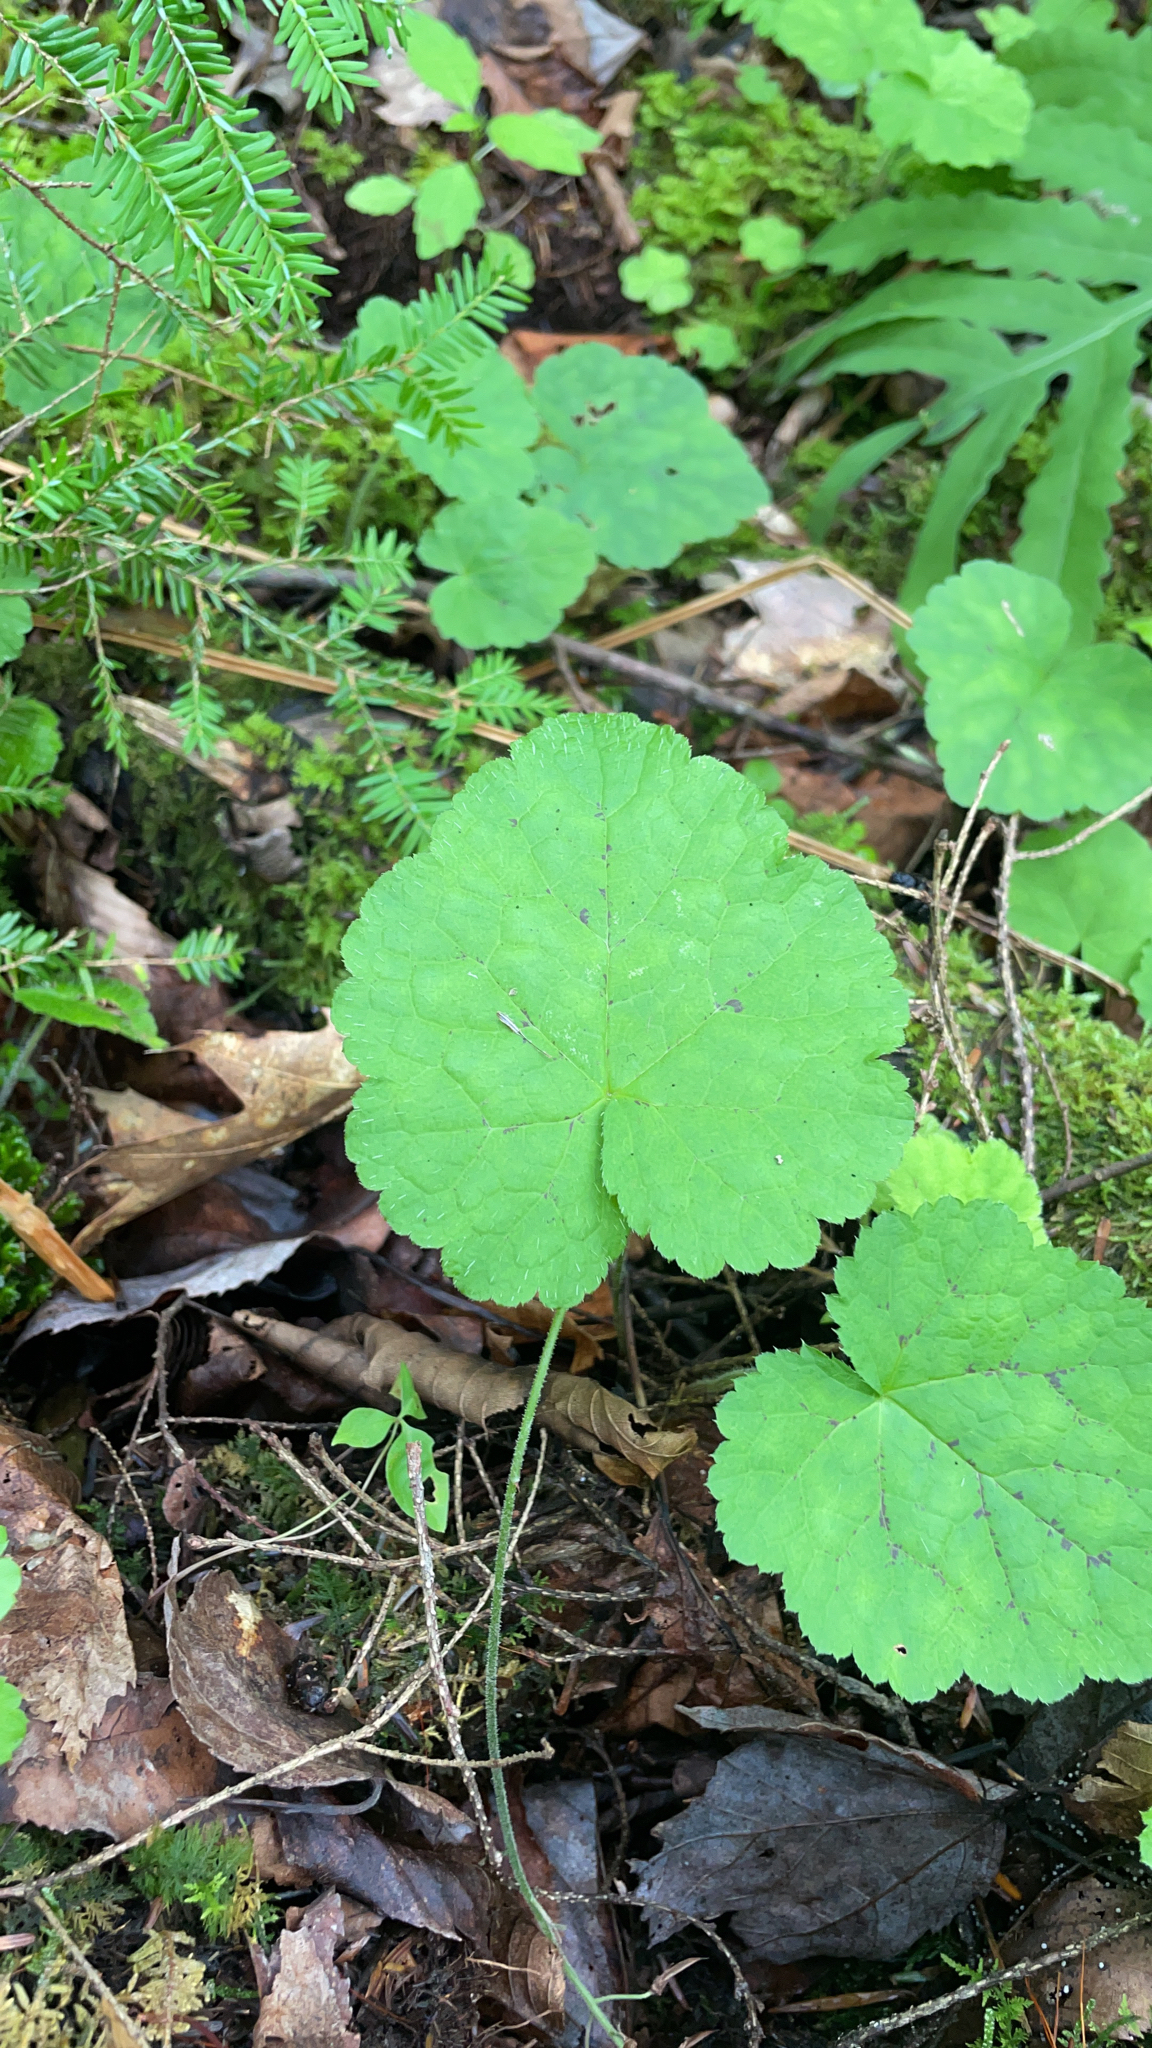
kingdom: Plantae
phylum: Tracheophyta
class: Magnoliopsida
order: Saxifragales
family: Saxifragaceae
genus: Tiarella
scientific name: Tiarella cordifolia
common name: Foamflower
